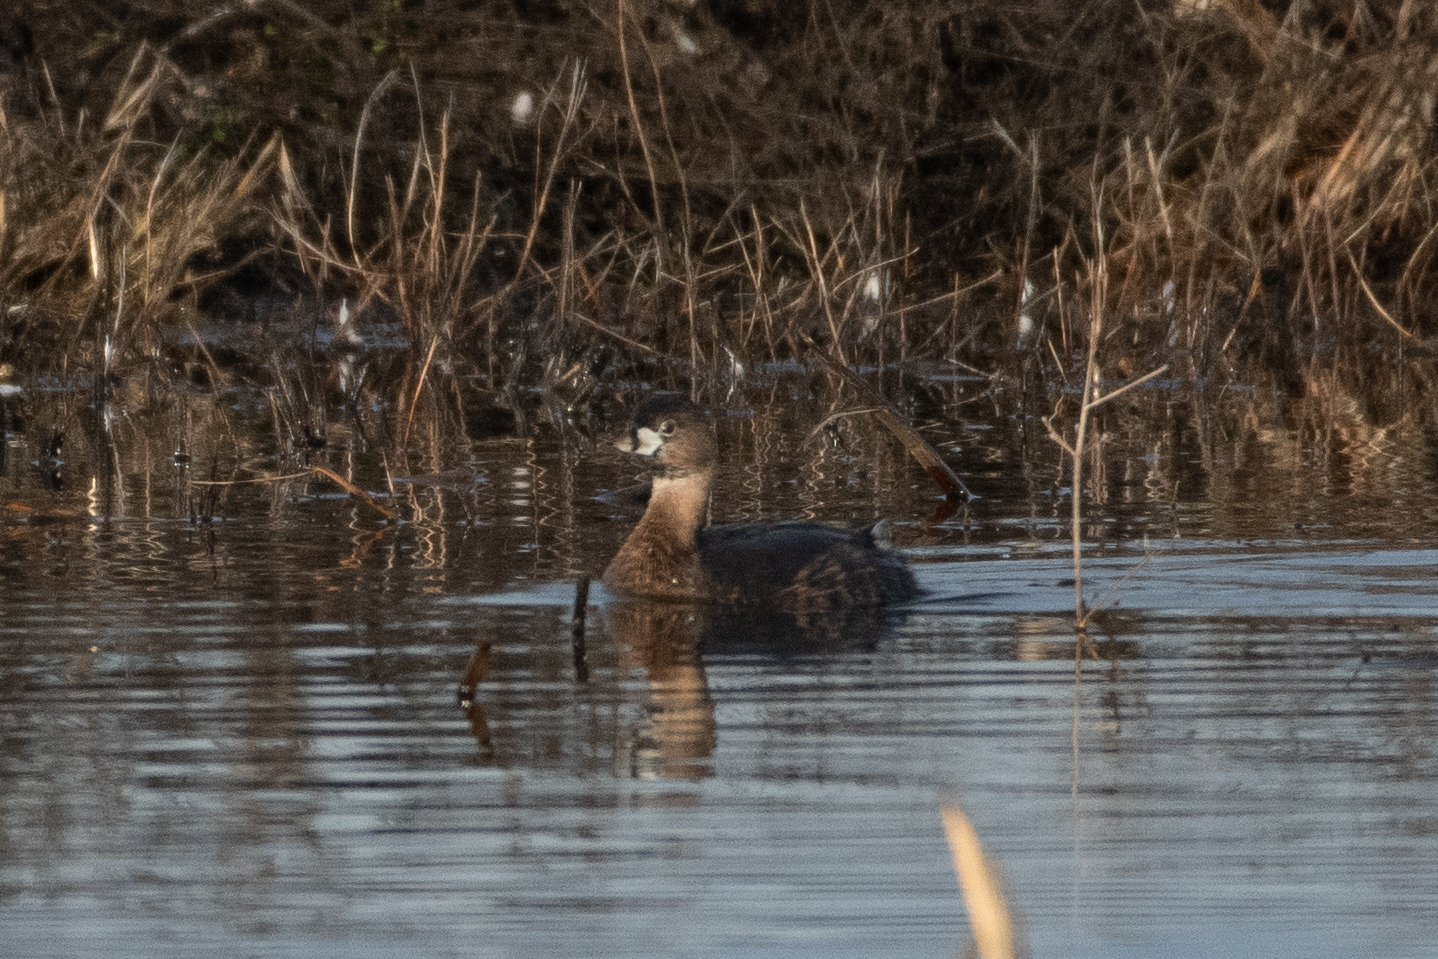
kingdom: Animalia
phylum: Chordata
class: Aves
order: Podicipediformes
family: Podicipedidae
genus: Podilymbus
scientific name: Podilymbus podiceps
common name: Pied-billed grebe
